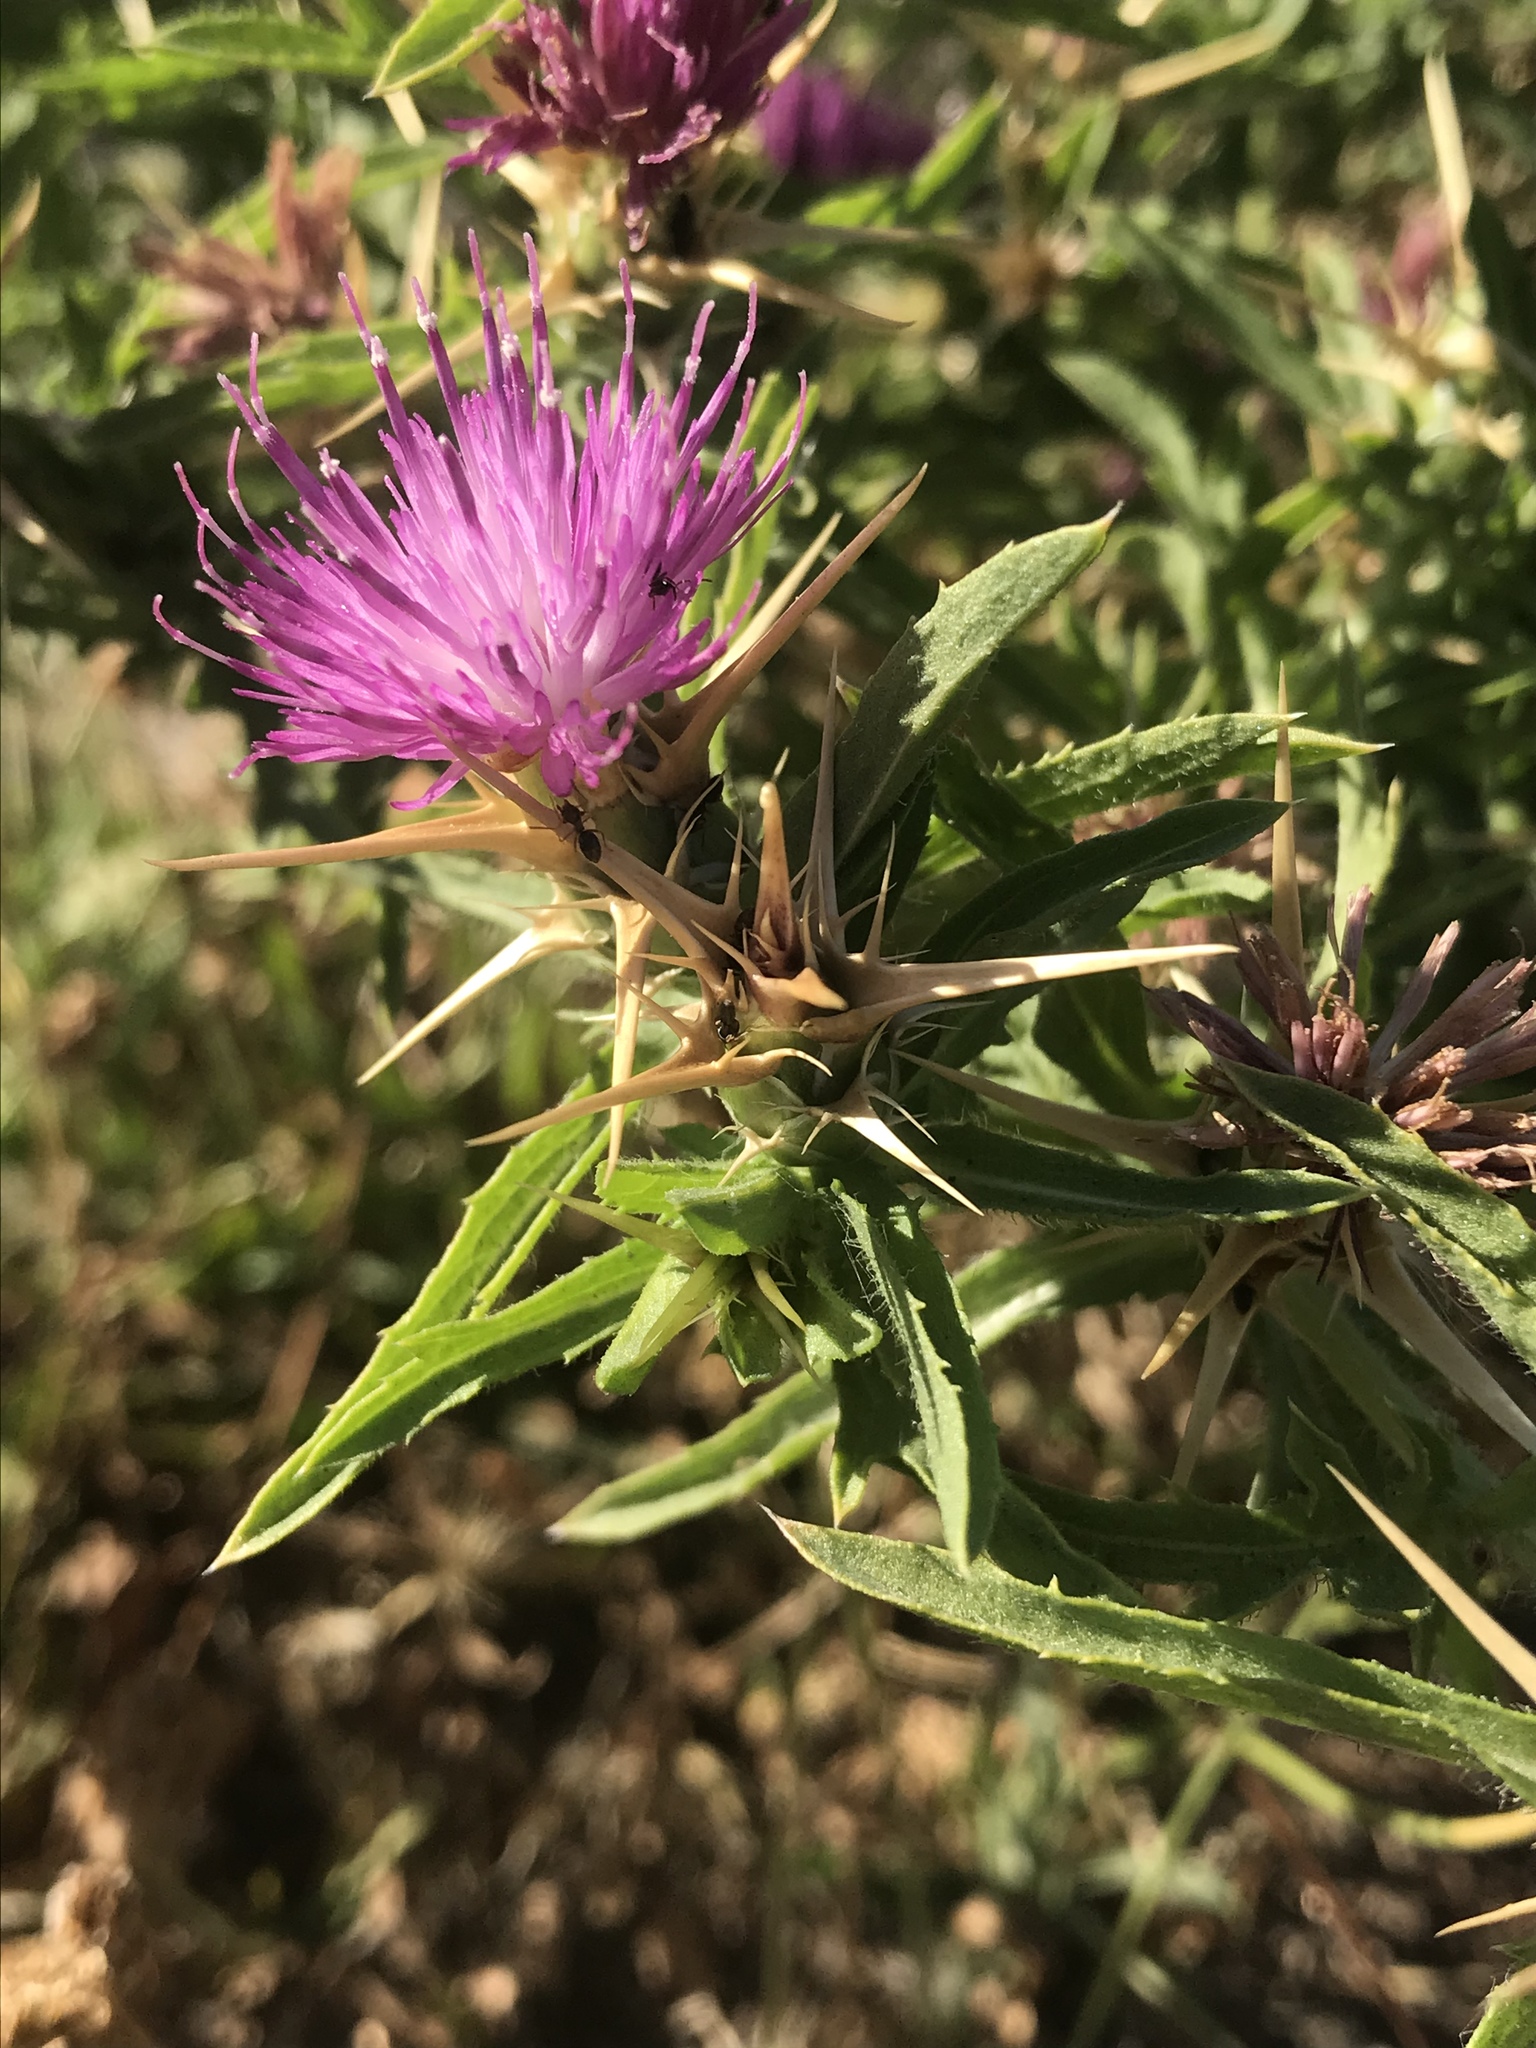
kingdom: Plantae
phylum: Tracheophyta
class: Magnoliopsida
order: Asterales
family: Asteraceae
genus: Centaurea
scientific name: Centaurea calcitrapa
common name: Red star-thistle
